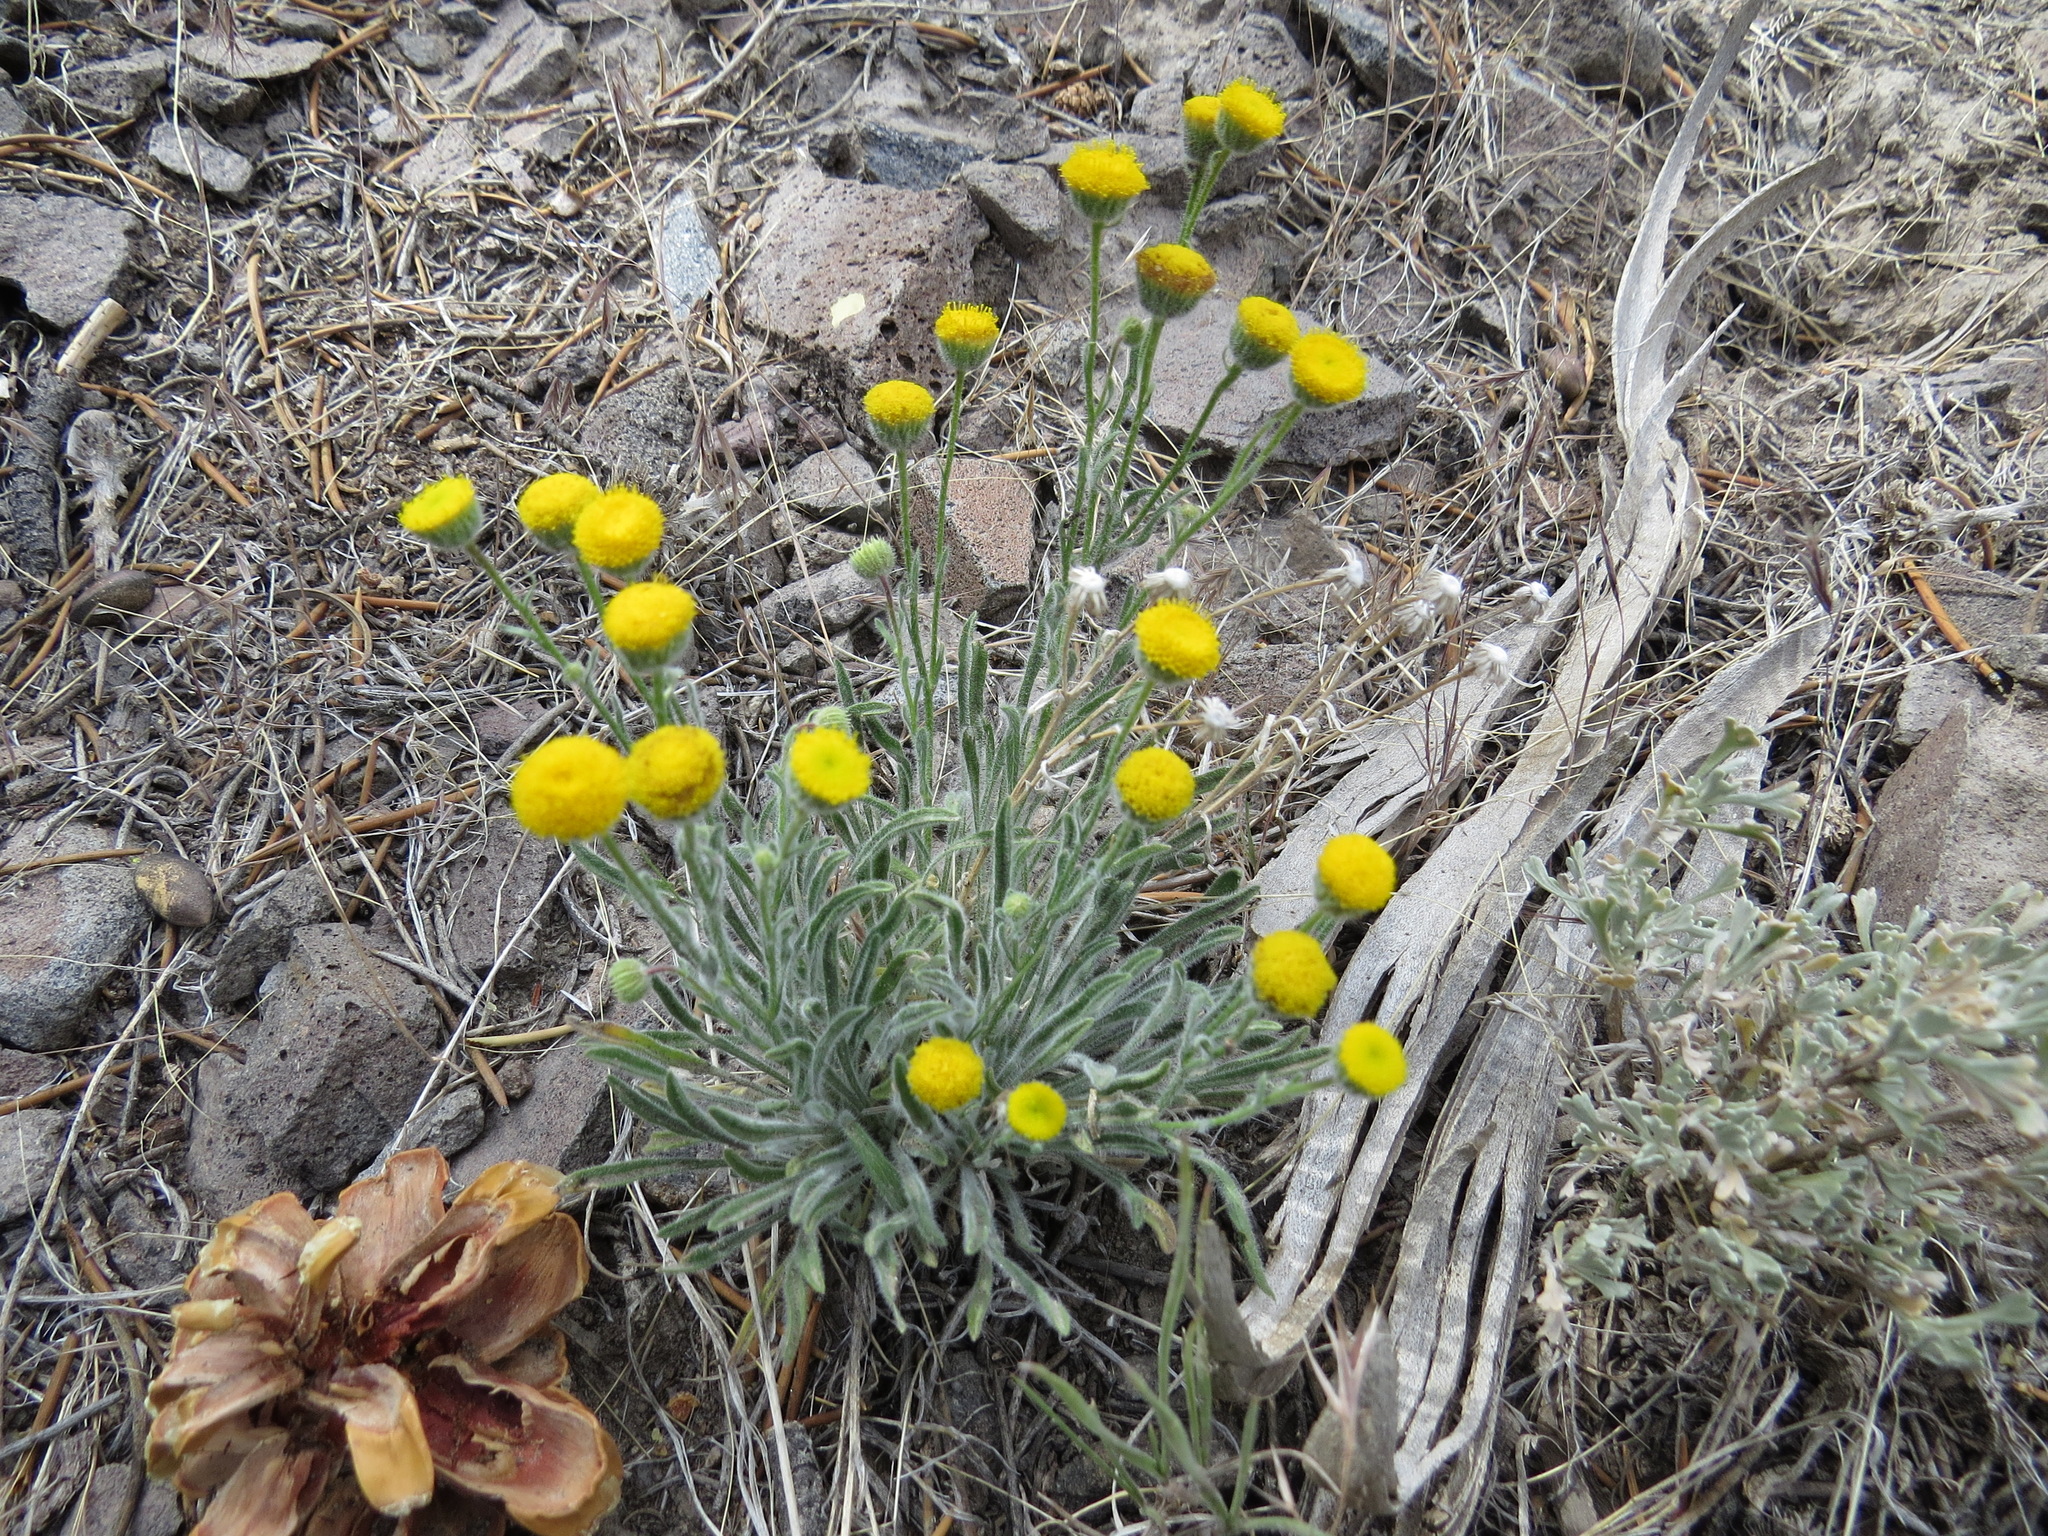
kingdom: Plantae
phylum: Tracheophyta
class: Magnoliopsida
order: Asterales
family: Asteraceae
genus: Erigeron
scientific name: Erigeron aphanactis
